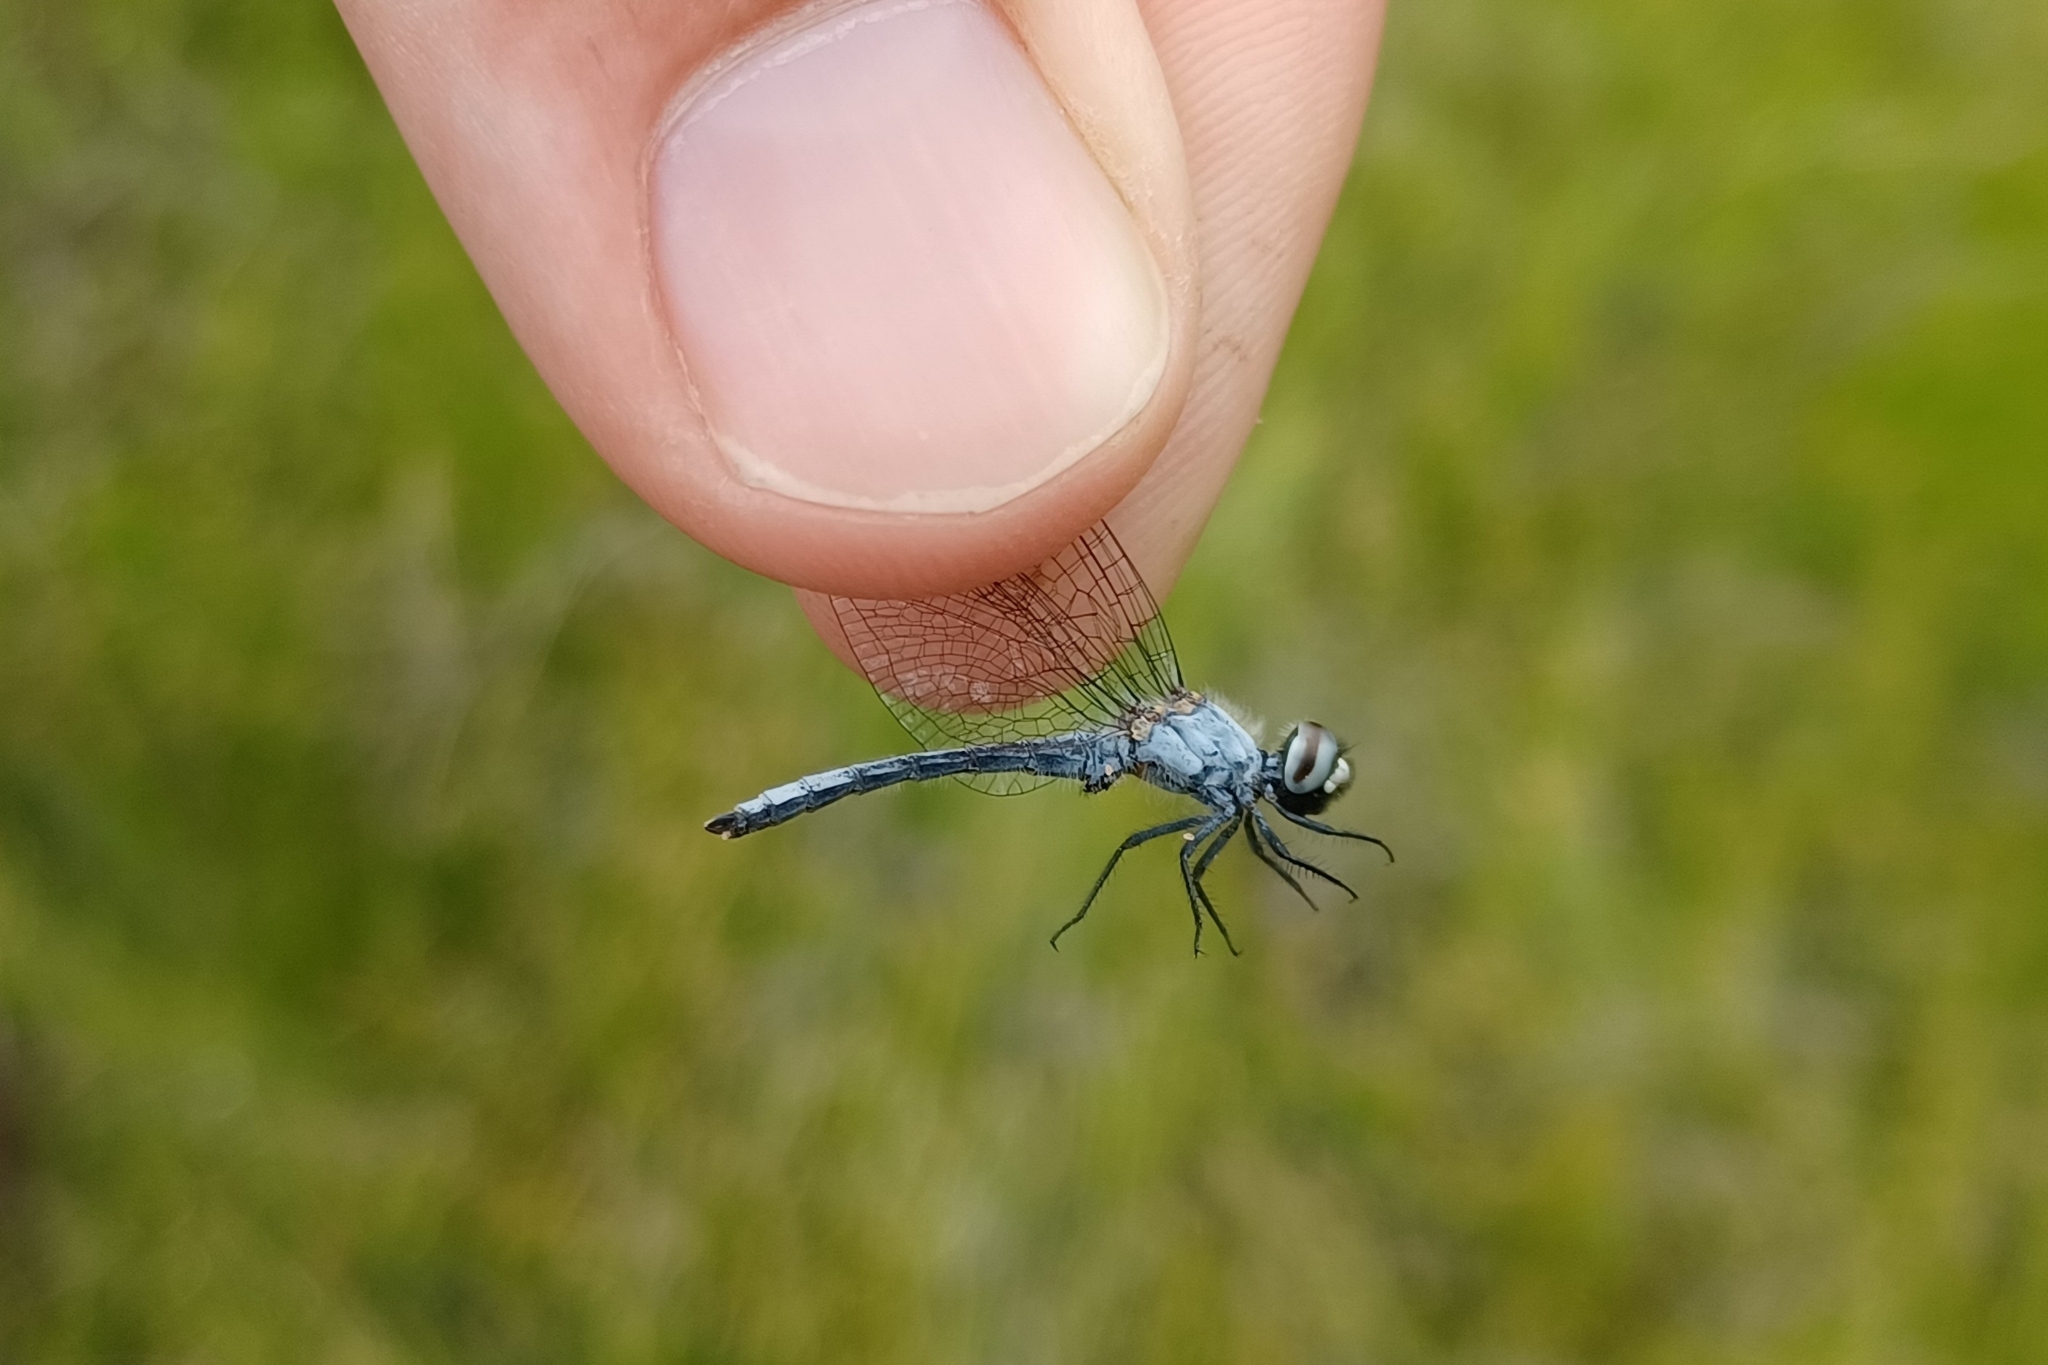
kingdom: Animalia
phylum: Arthropoda
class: Insecta
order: Odonata
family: Libellulidae
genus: Nannothemis
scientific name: Nannothemis bella
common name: Elfin skimmer
